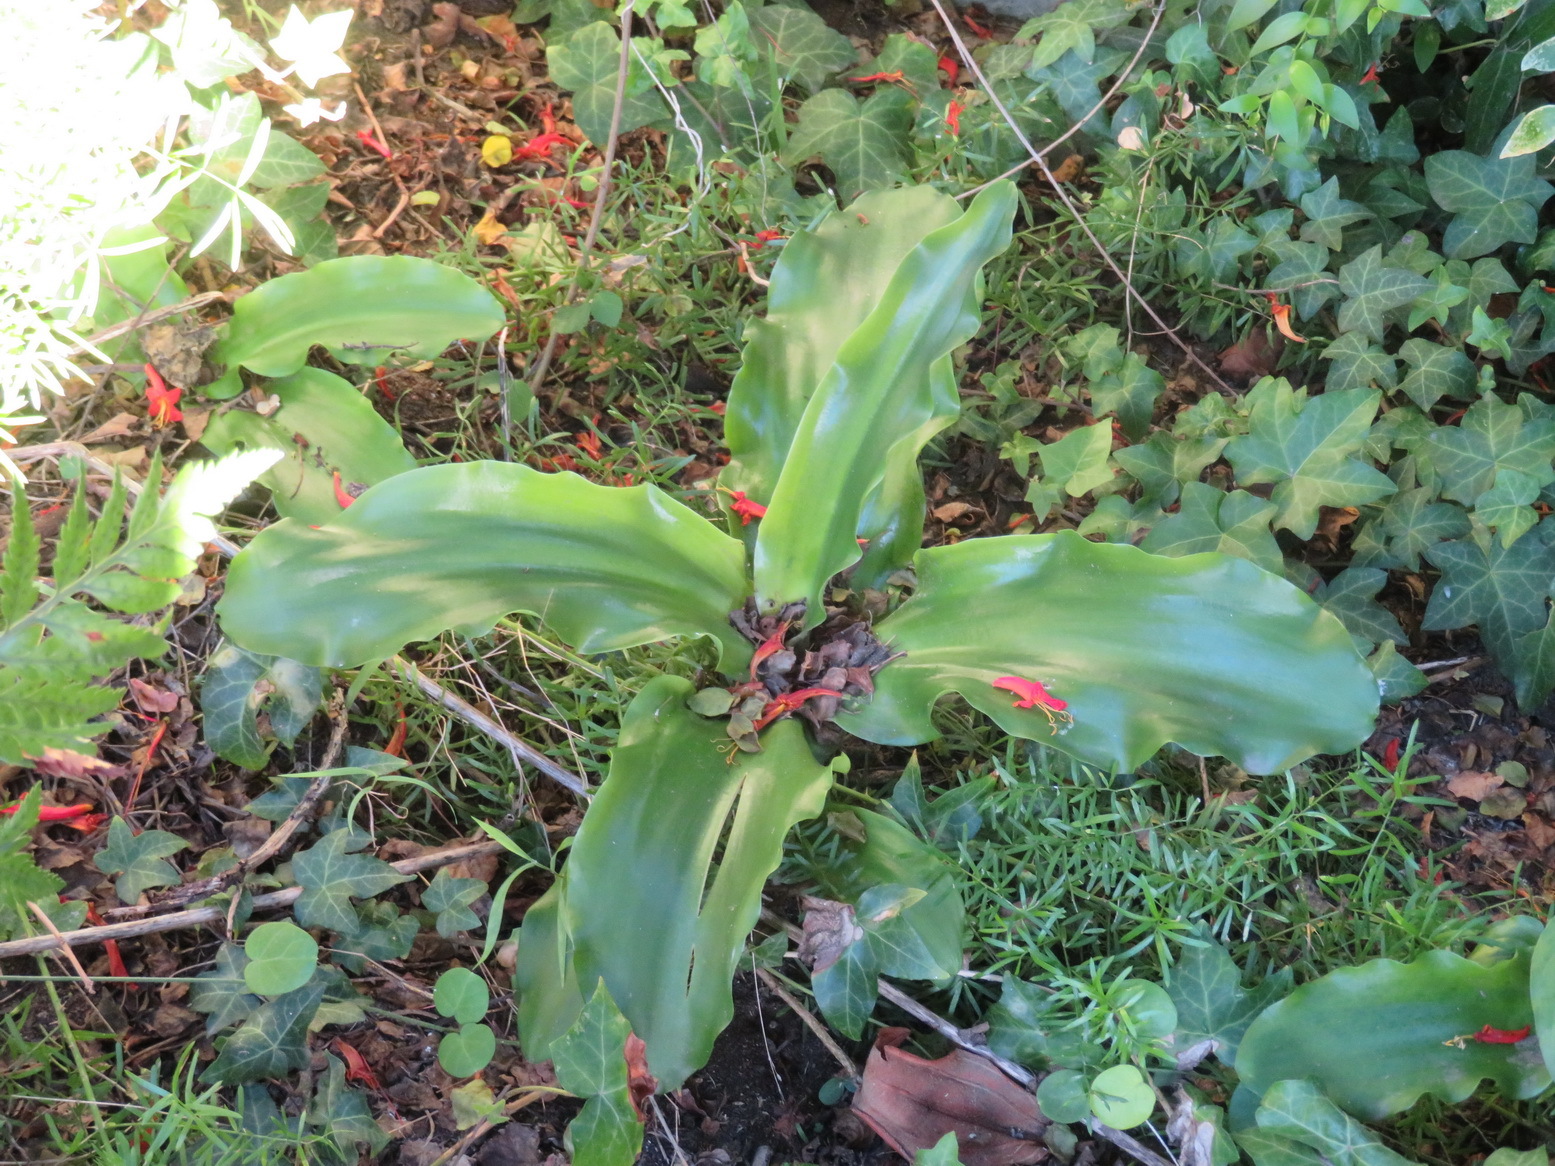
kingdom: Plantae
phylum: Tracheophyta
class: Liliopsida
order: Asparagales
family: Asparagaceae
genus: Veltheimia
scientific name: Veltheimia bracteata
